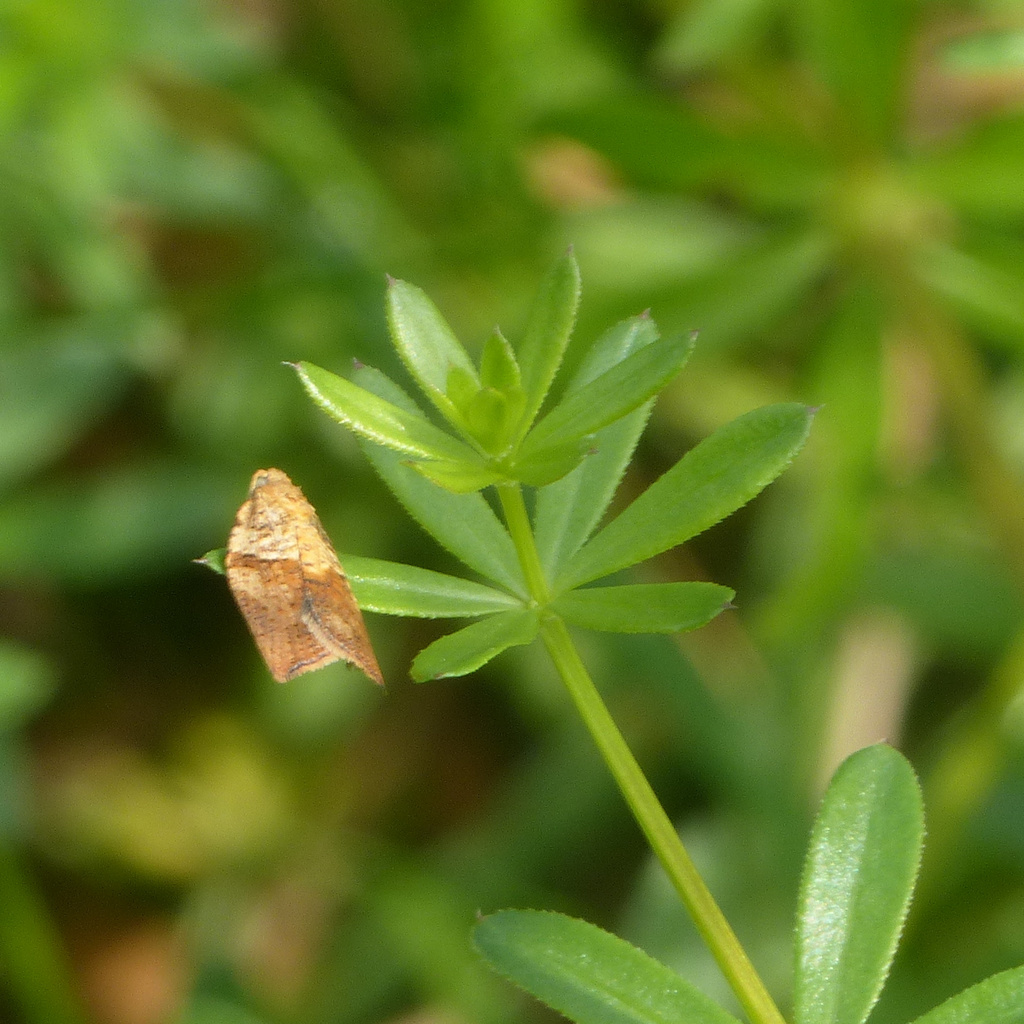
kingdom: Animalia
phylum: Arthropoda
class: Insecta
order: Lepidoptera
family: Tortricidae
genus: Epiphyas
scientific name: Epiphyas postvittana
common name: Light brown apple moth
